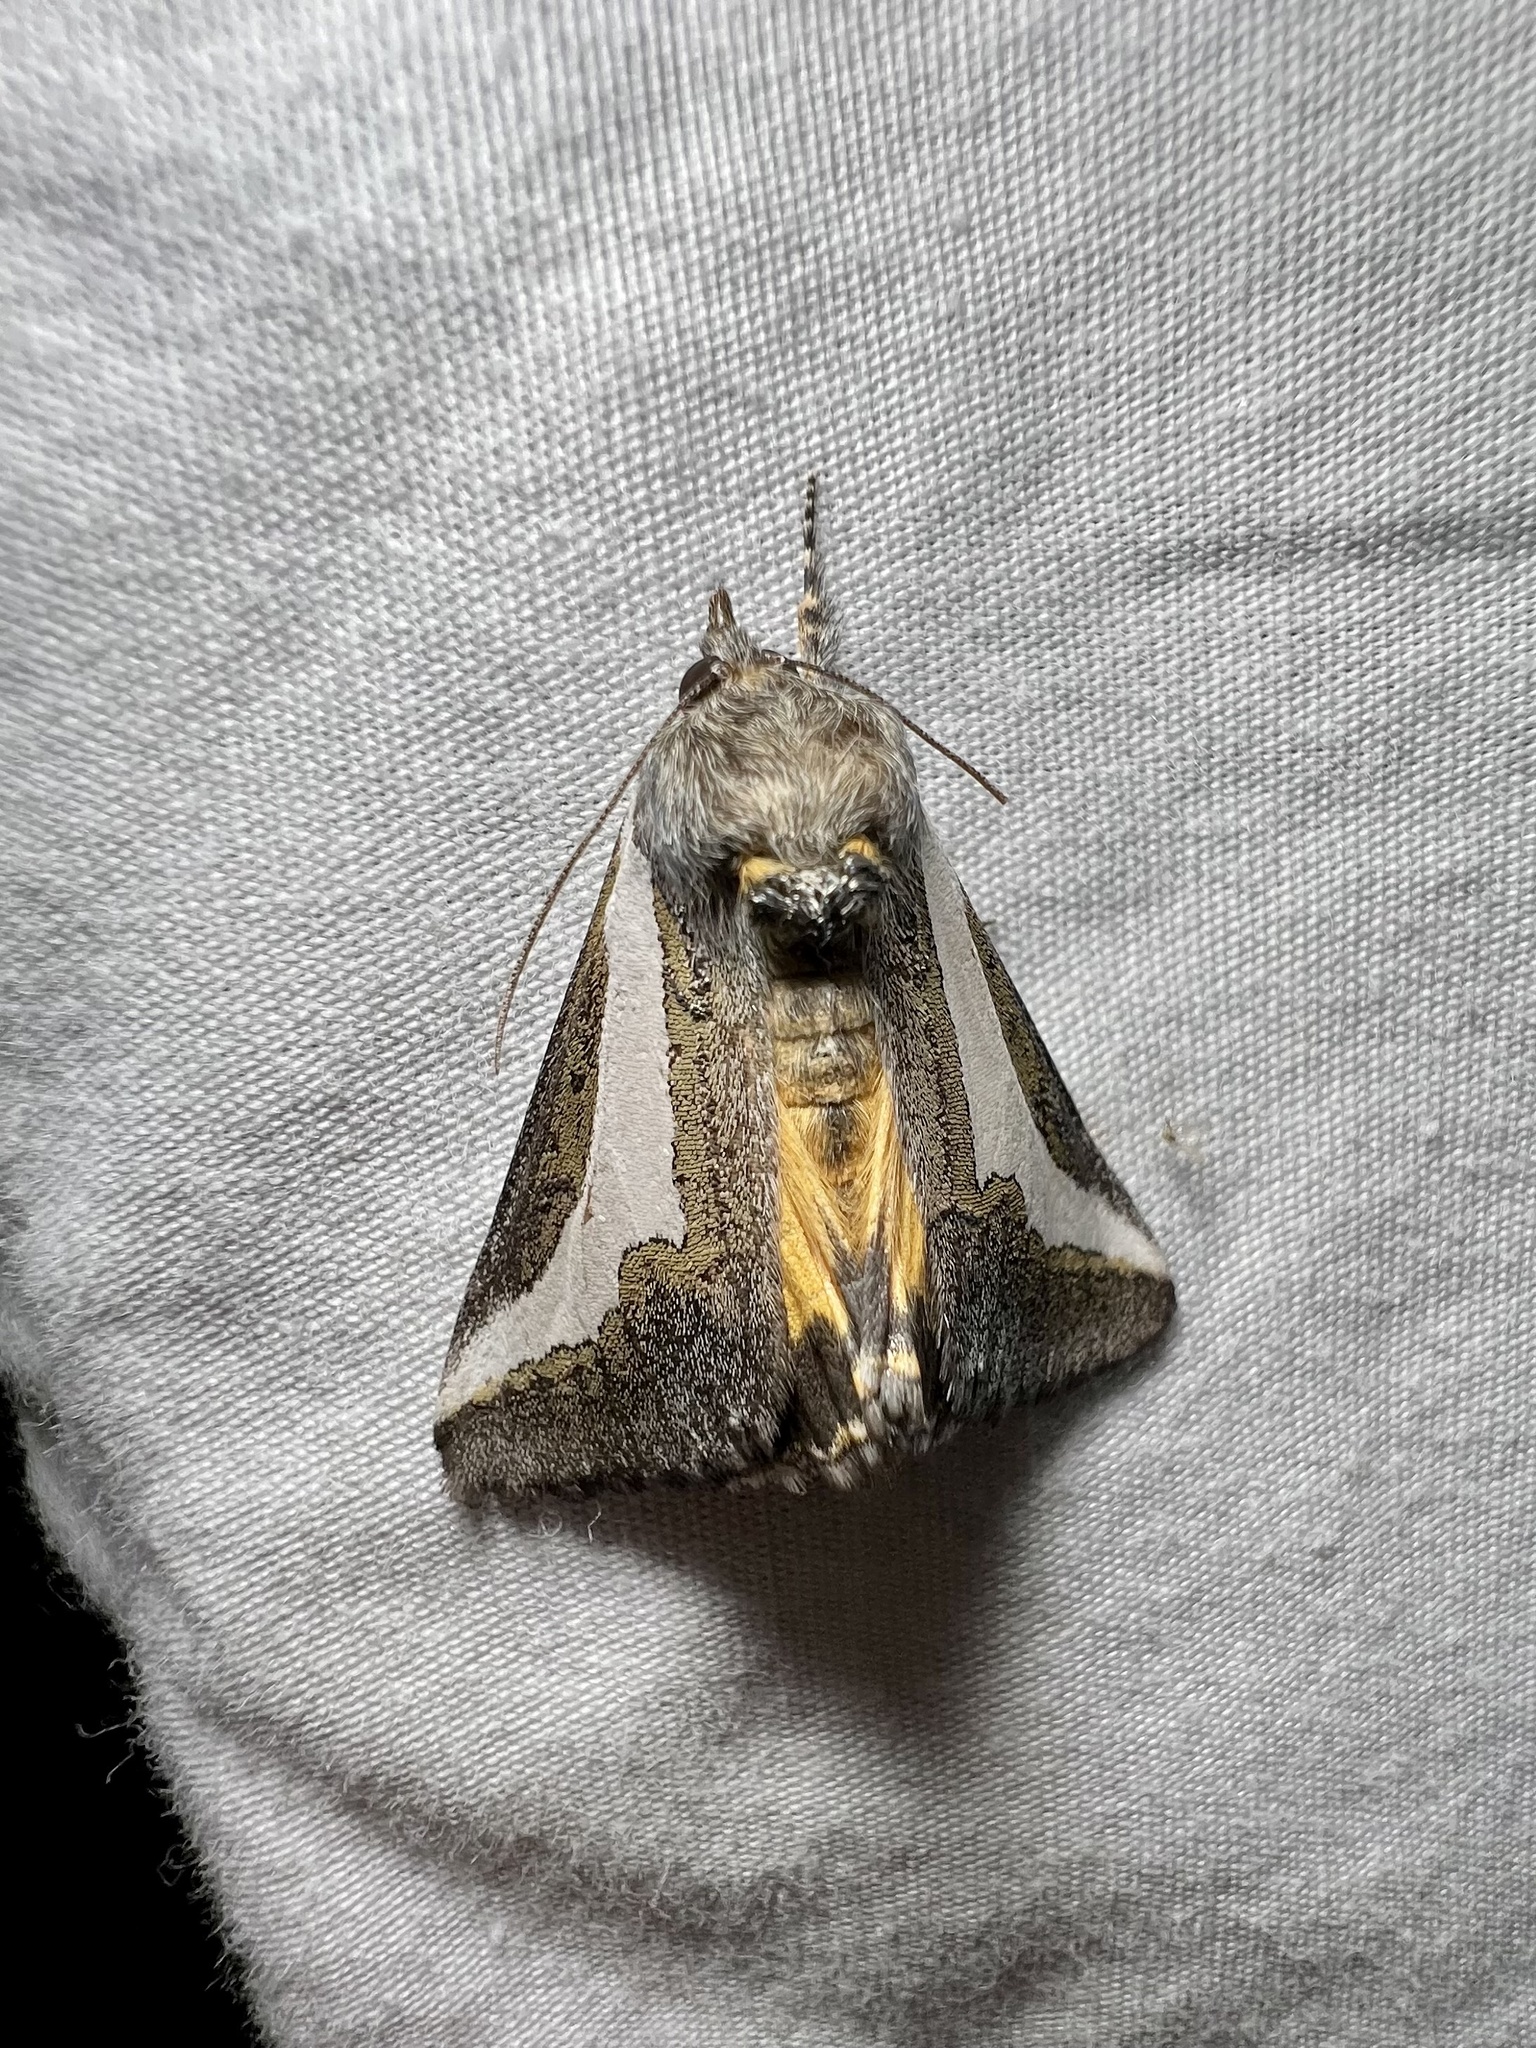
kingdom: Animalia
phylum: Arthropoda
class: Insecta
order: Lepidoptera
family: Noctuidae
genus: Euscirrhopterus
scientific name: Euscirrhopterus cosyra
